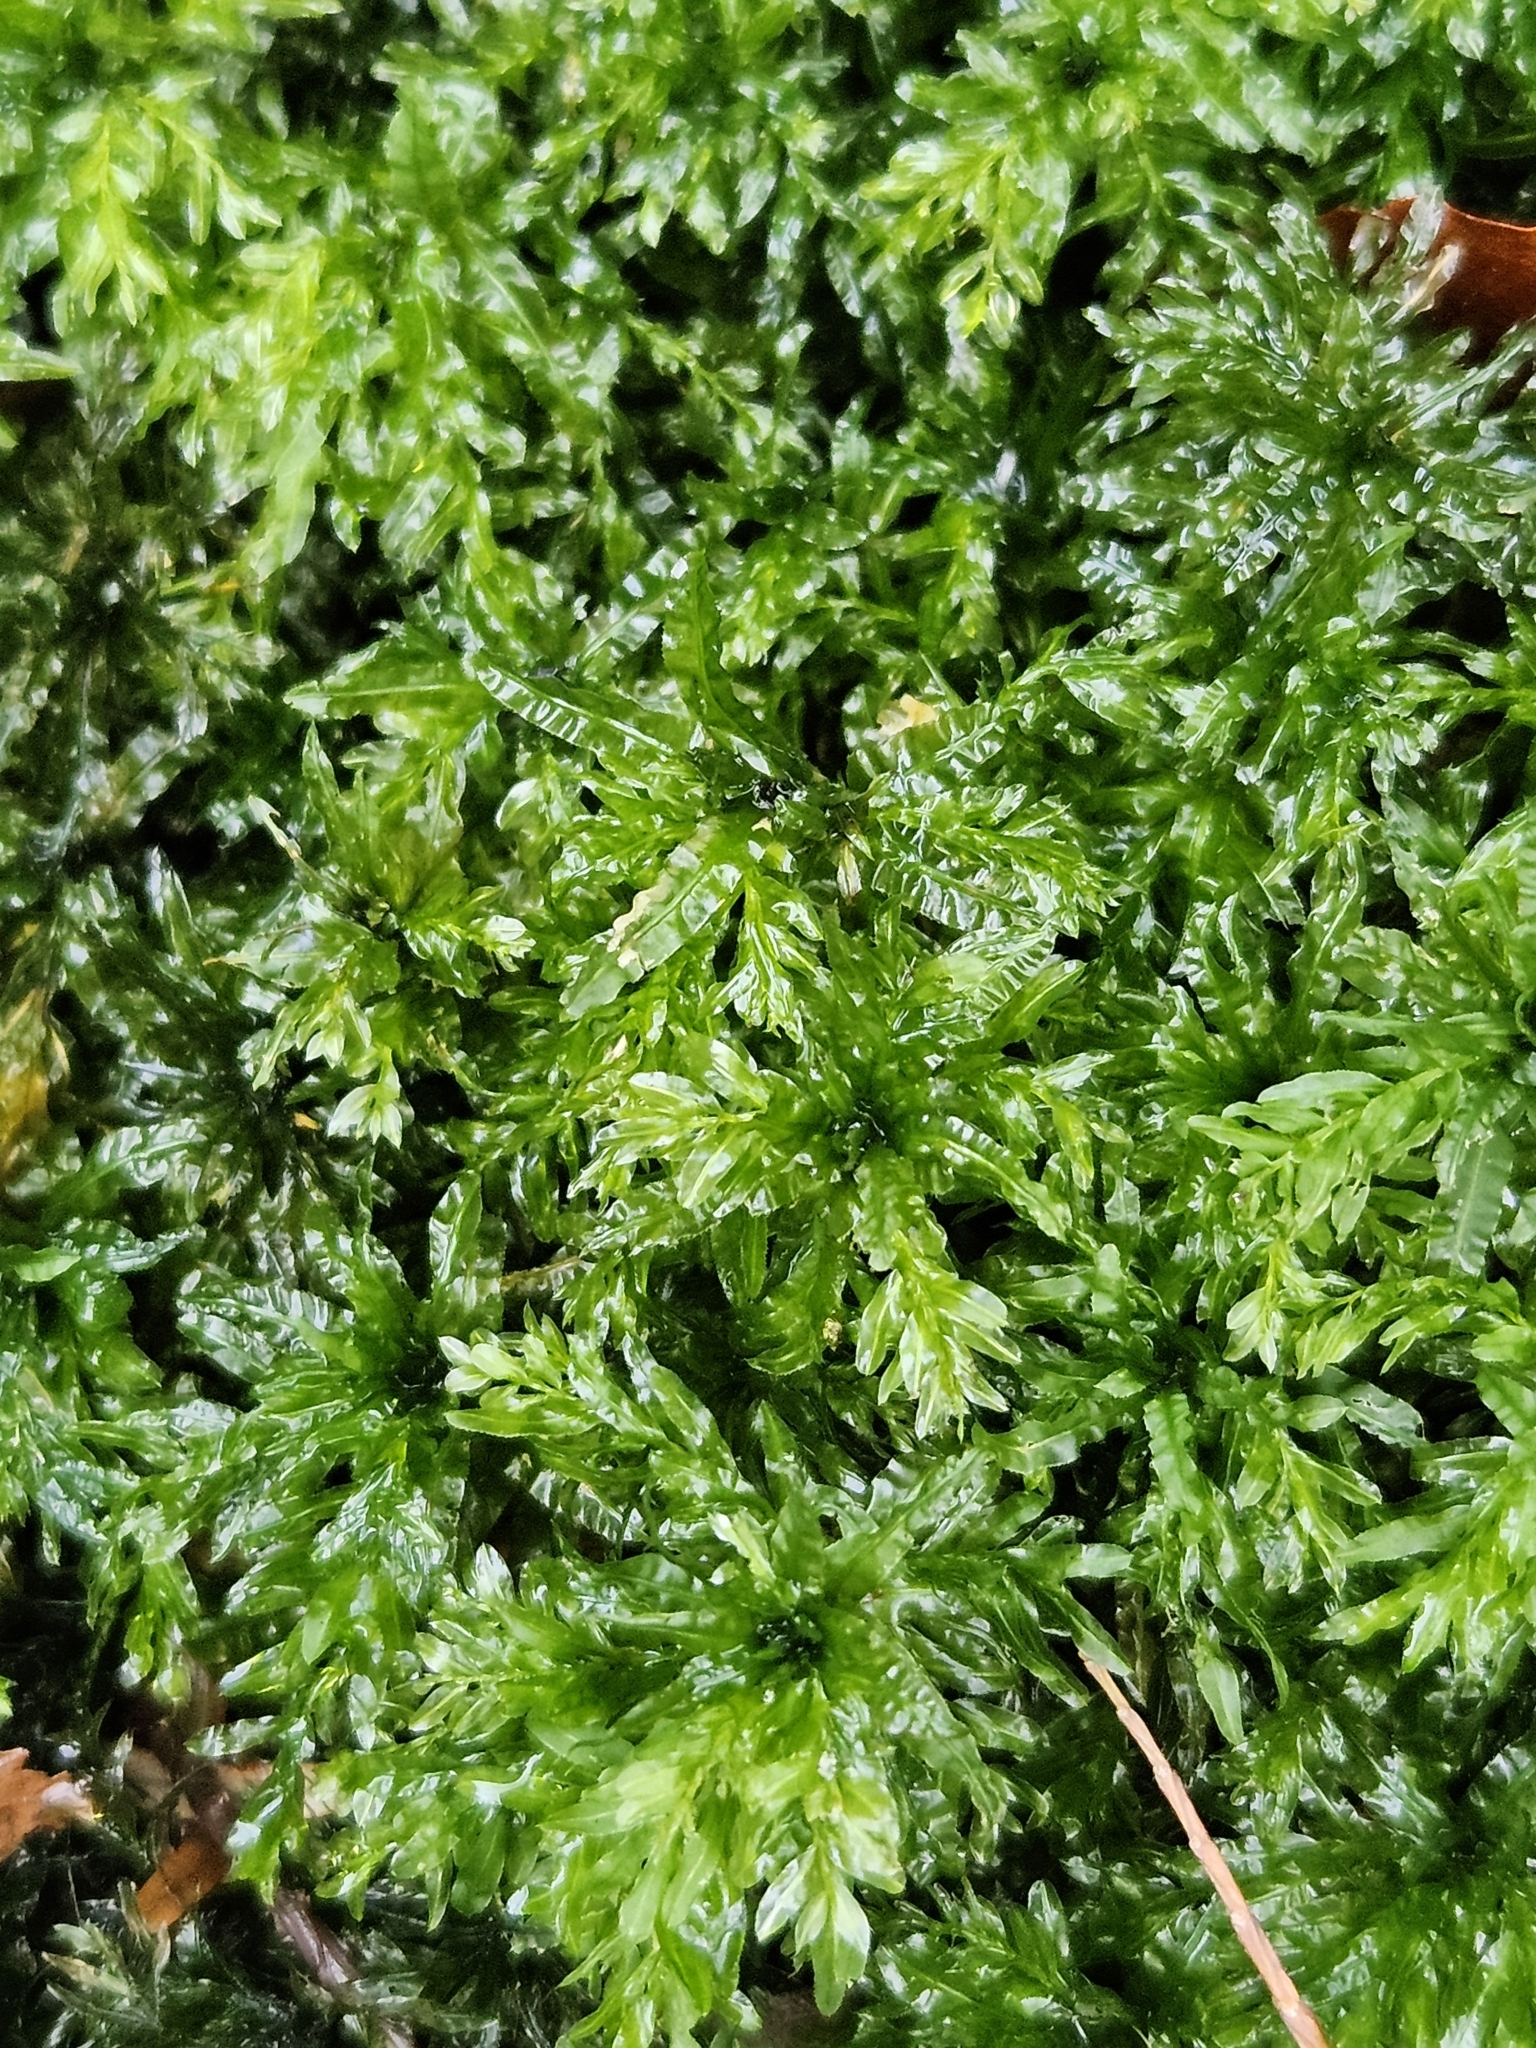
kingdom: Plantae
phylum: Bryophyta
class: Bryopsida
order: Bryales
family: Mniaceae
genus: Plagiomnium
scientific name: Plagiomnium undulatum
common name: Hart's-tongue thyme-moss
